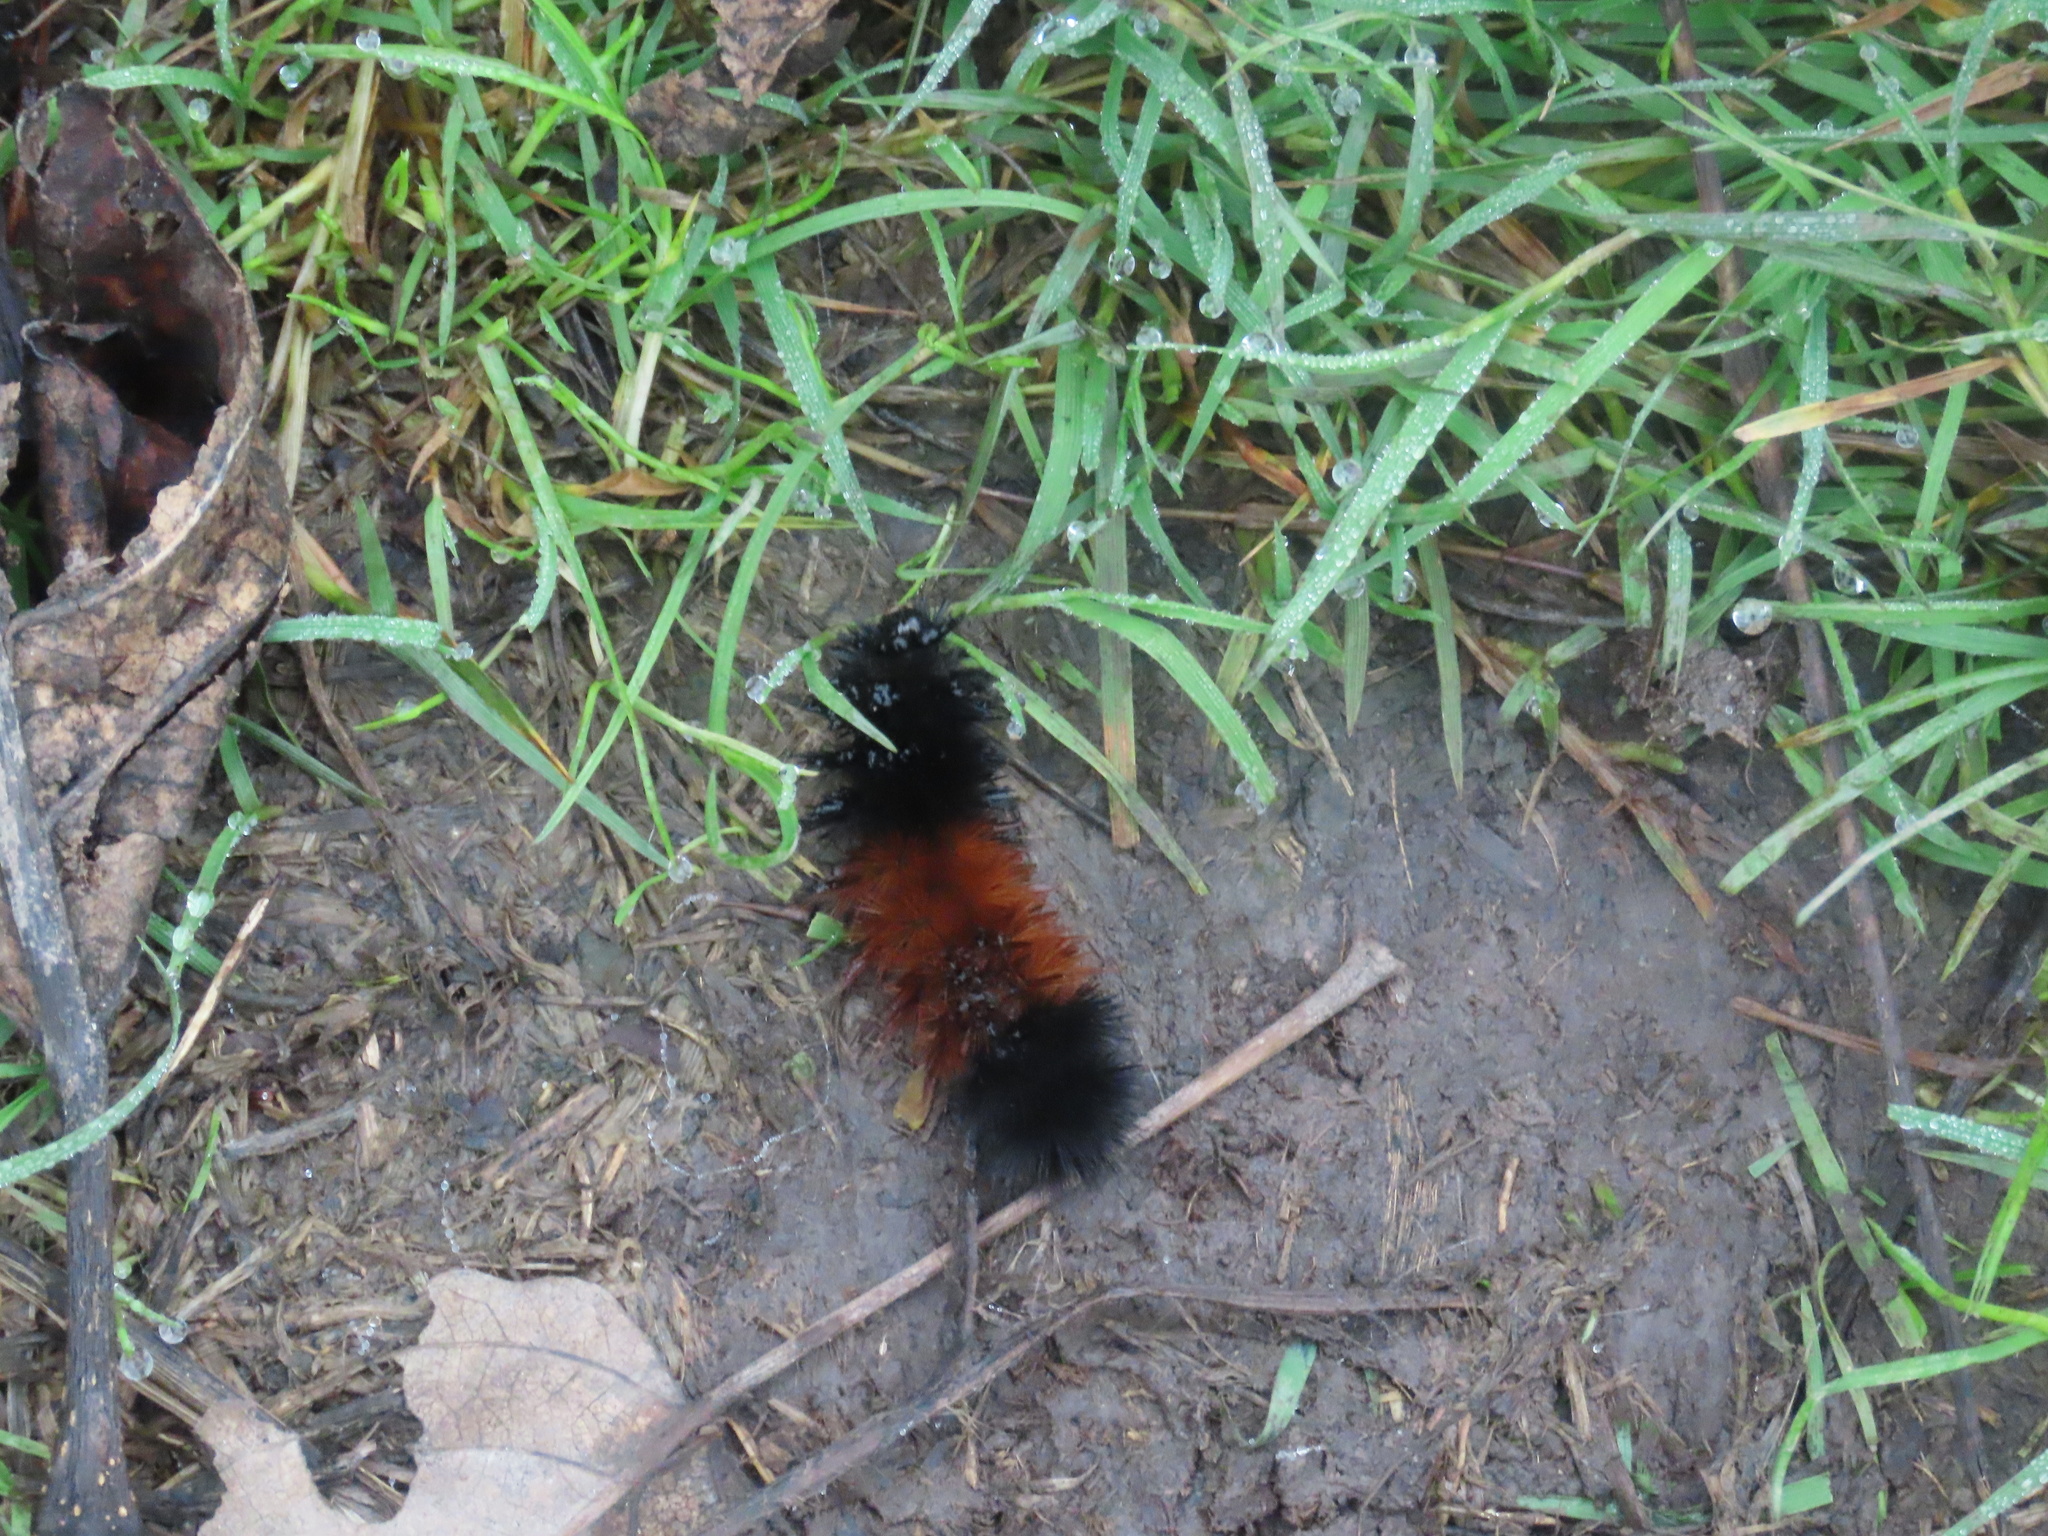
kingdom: Animalia
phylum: Arthropoda
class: Insecta
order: Lepidoptera
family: Erebidae
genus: Pyrrharctia
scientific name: Pyrrharctia isabella
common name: Isabella tiger moth
